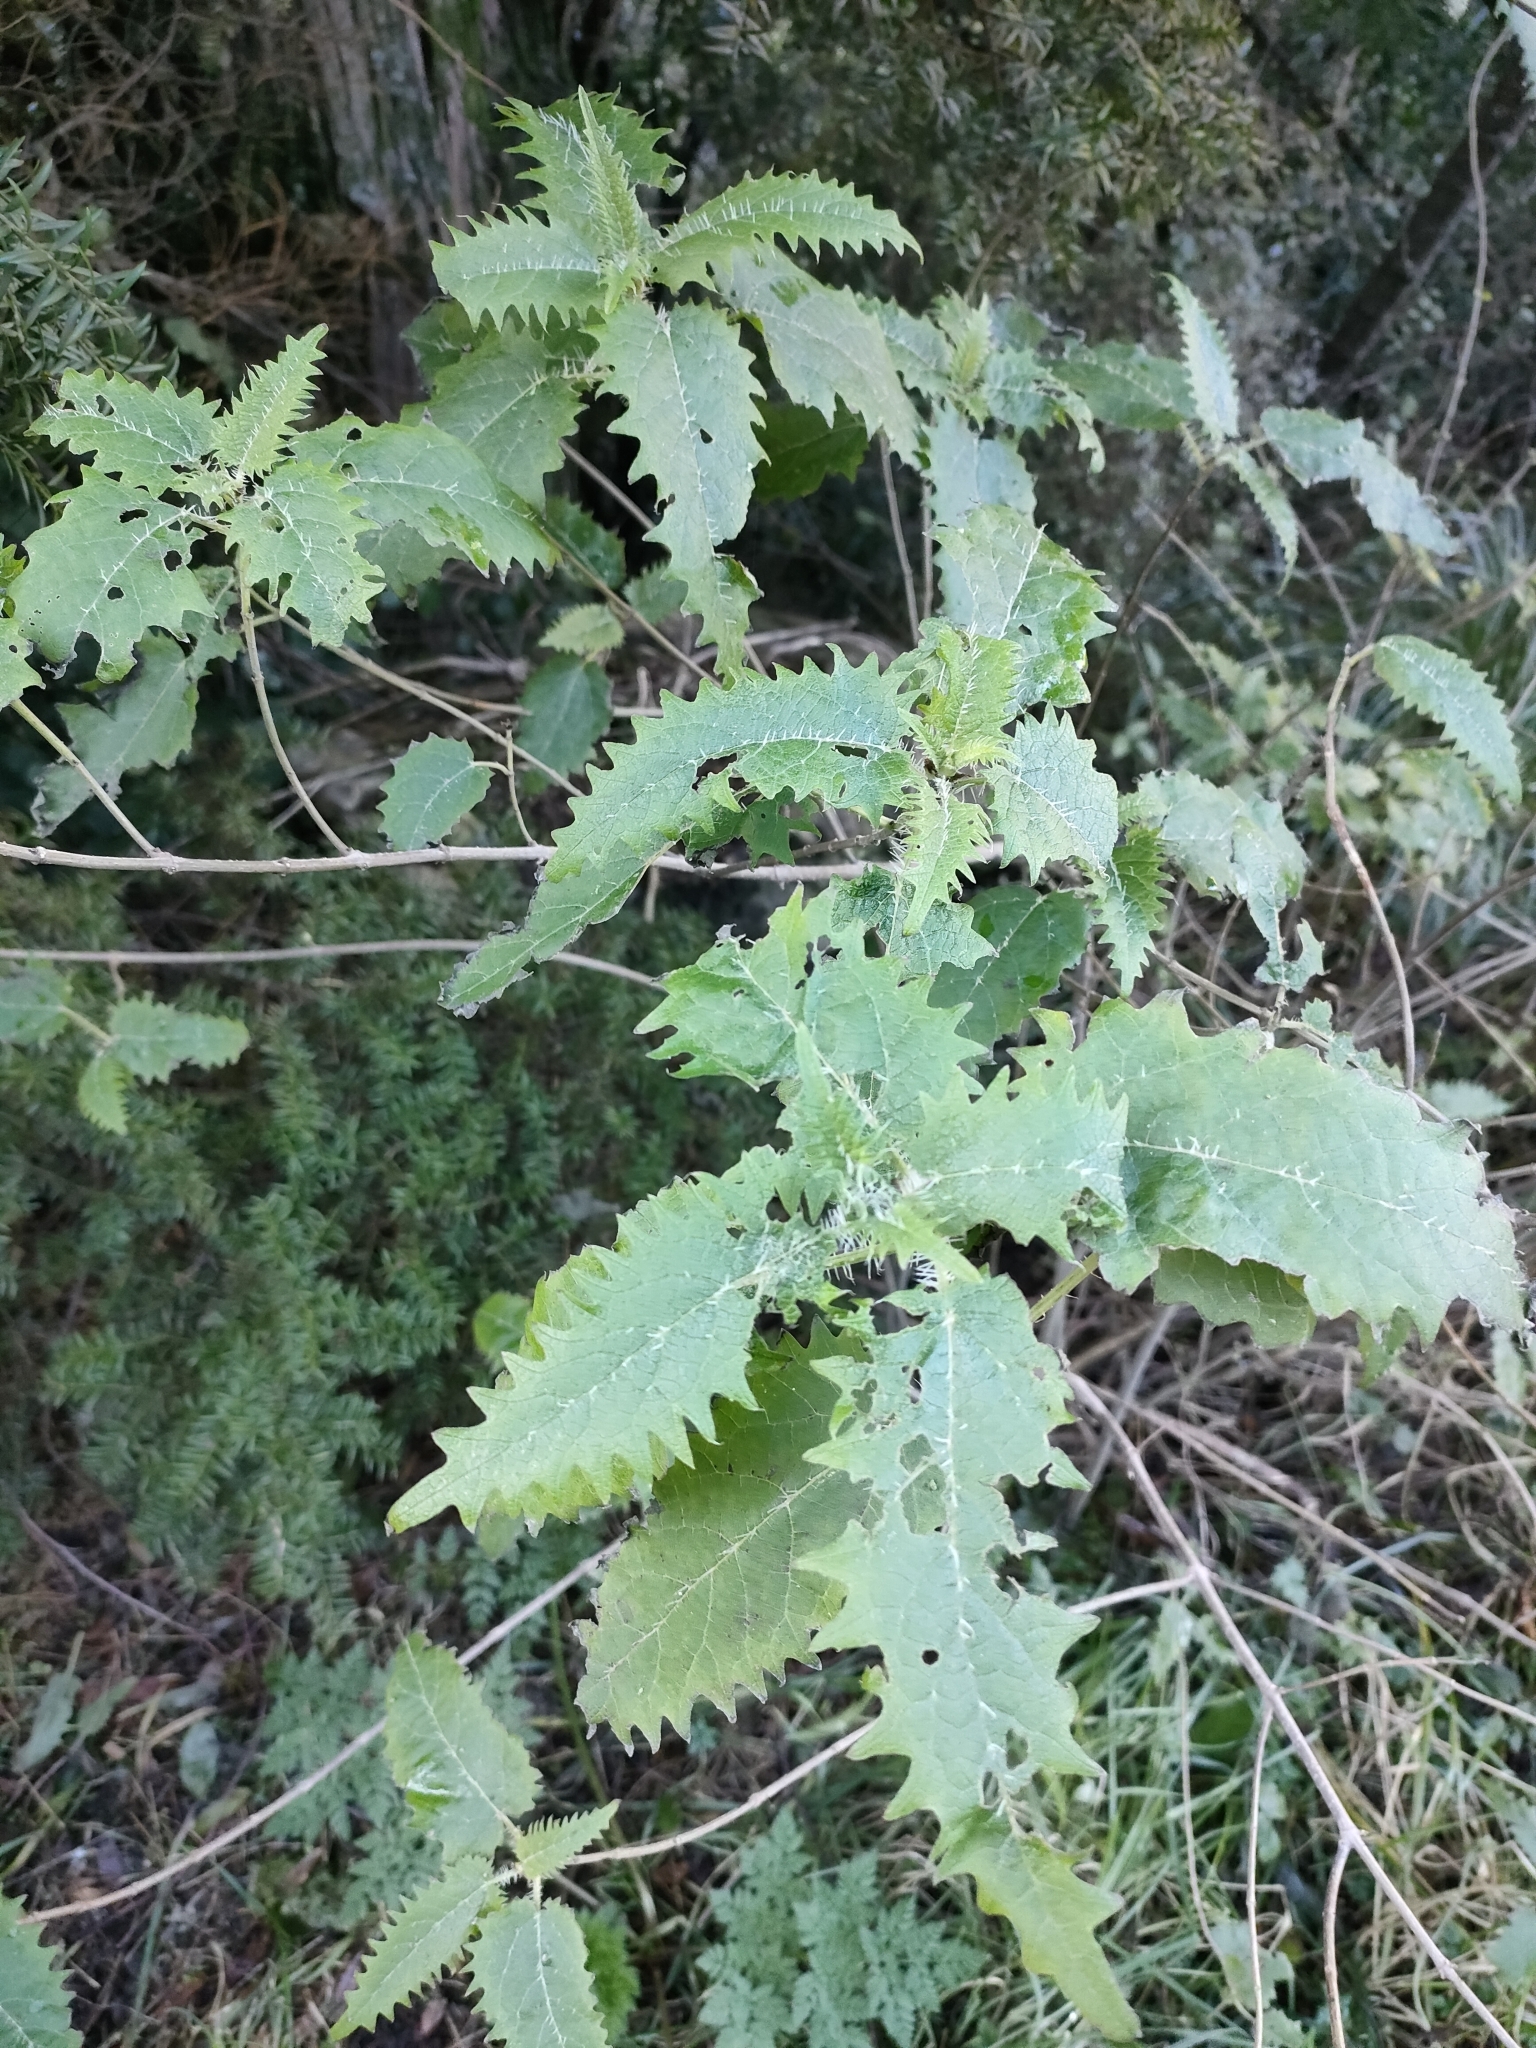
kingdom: Plantae
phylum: Tracheophyta
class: Magnoliopsida
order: Rosales
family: Urticaceae
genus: Urtica
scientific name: Urtica ferox
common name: Tree nettle
